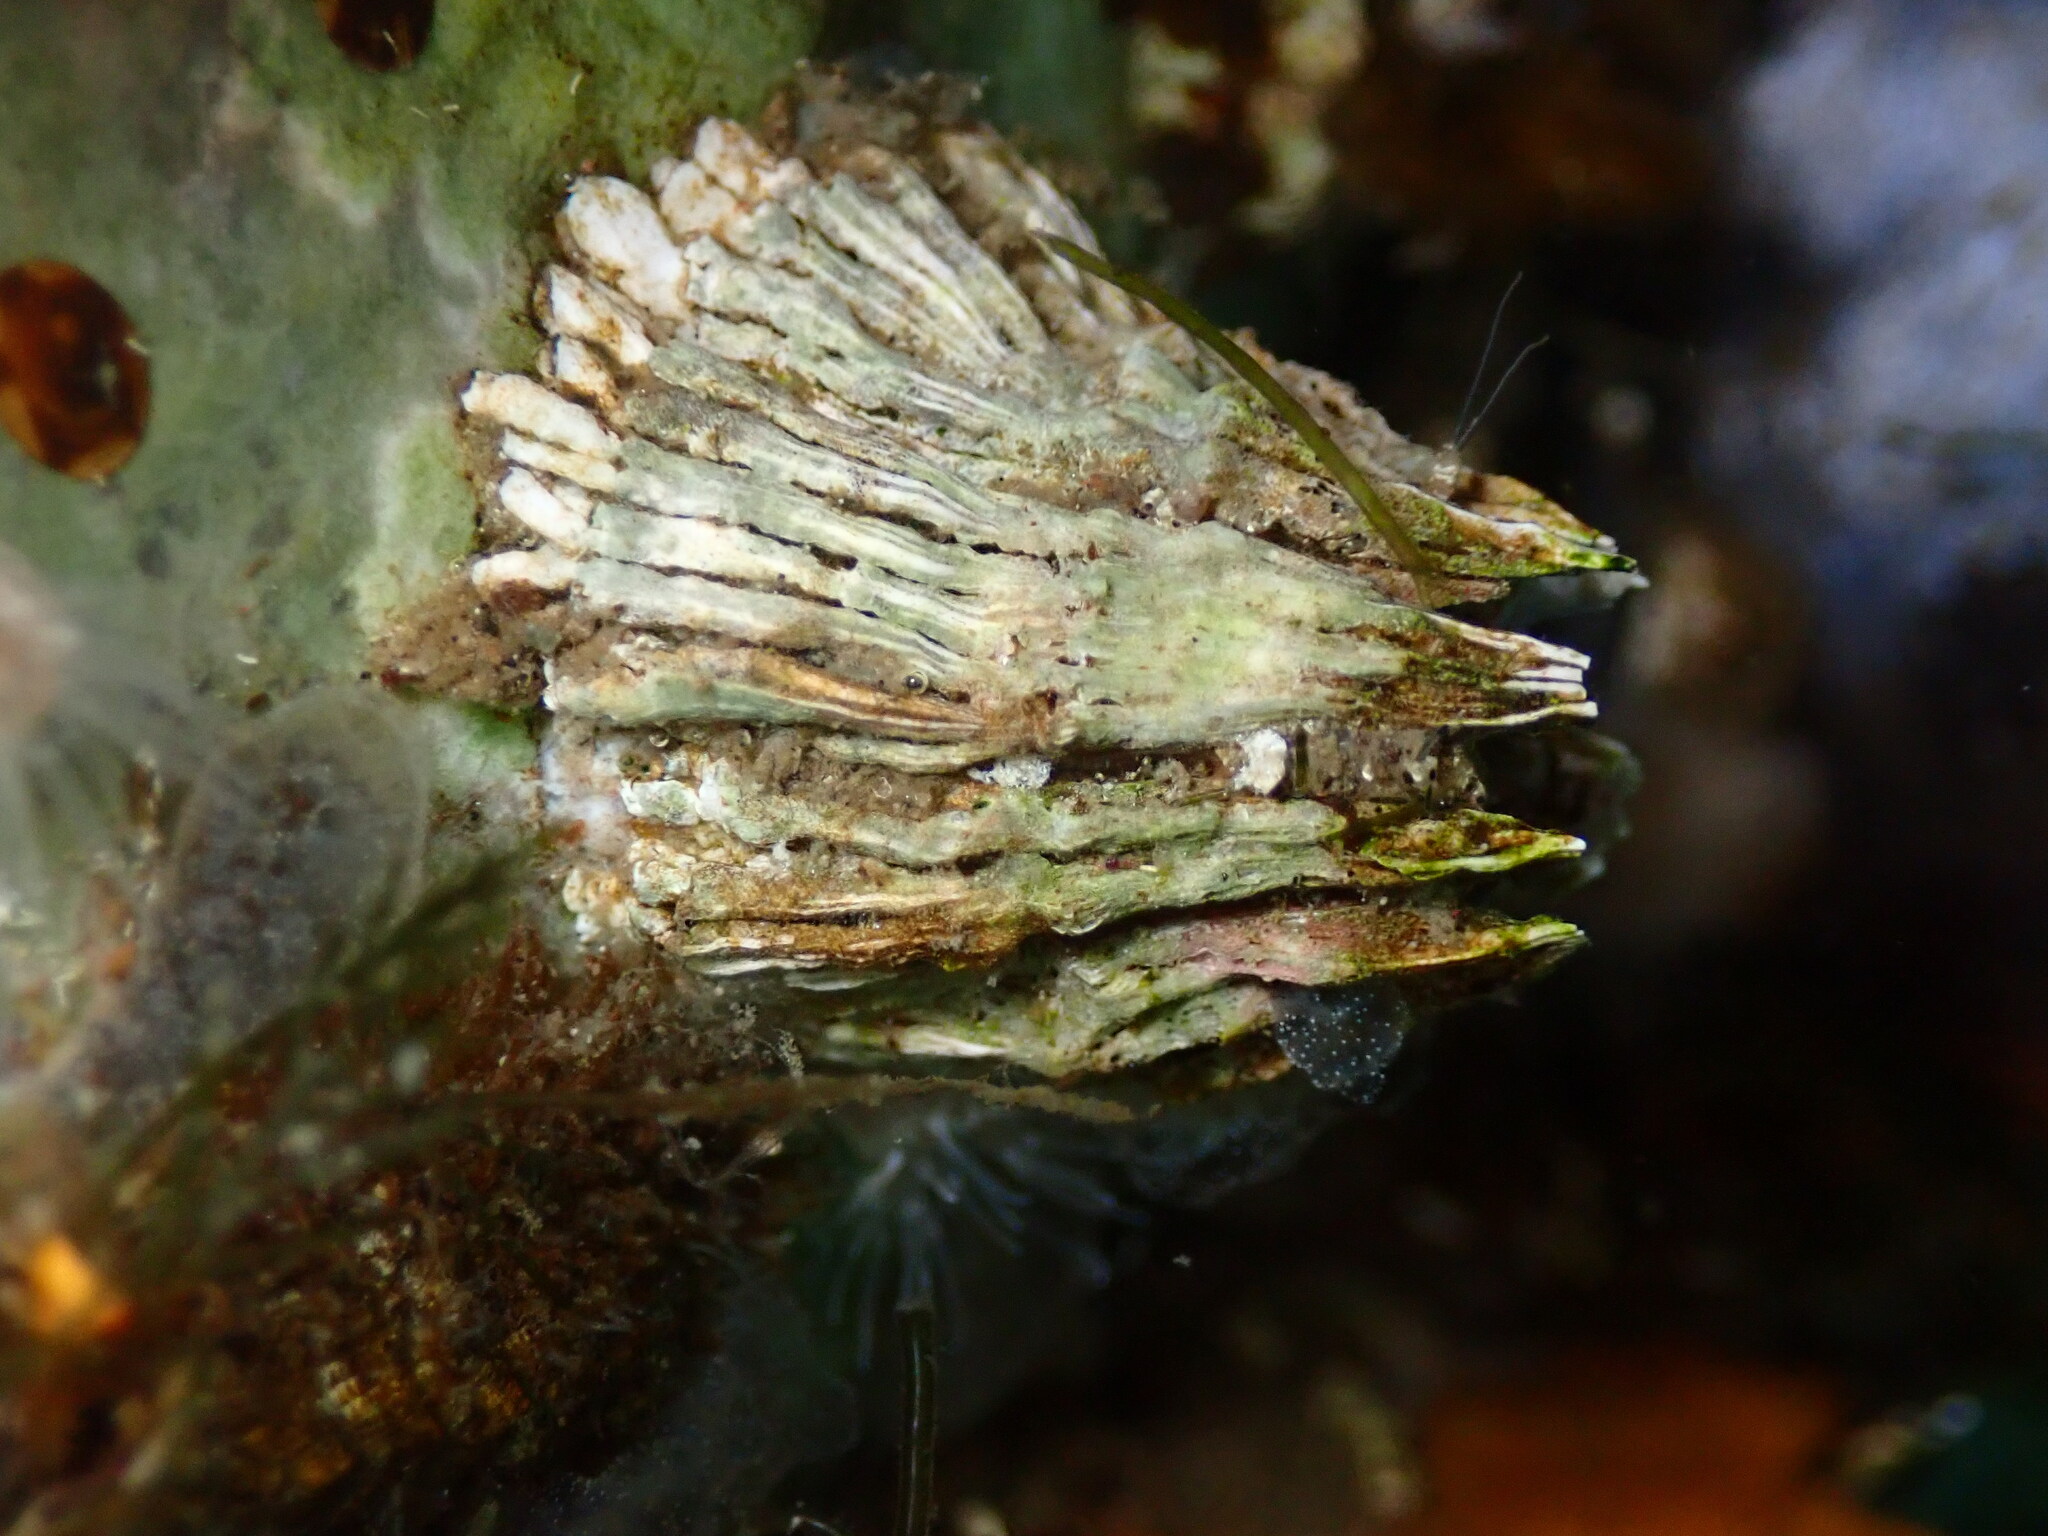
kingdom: Animalia
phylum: Arthropoda
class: Maxillopoda
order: Sessilia
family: Archaeobalanidae
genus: Semibalanus
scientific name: Semibalanus cariosus
